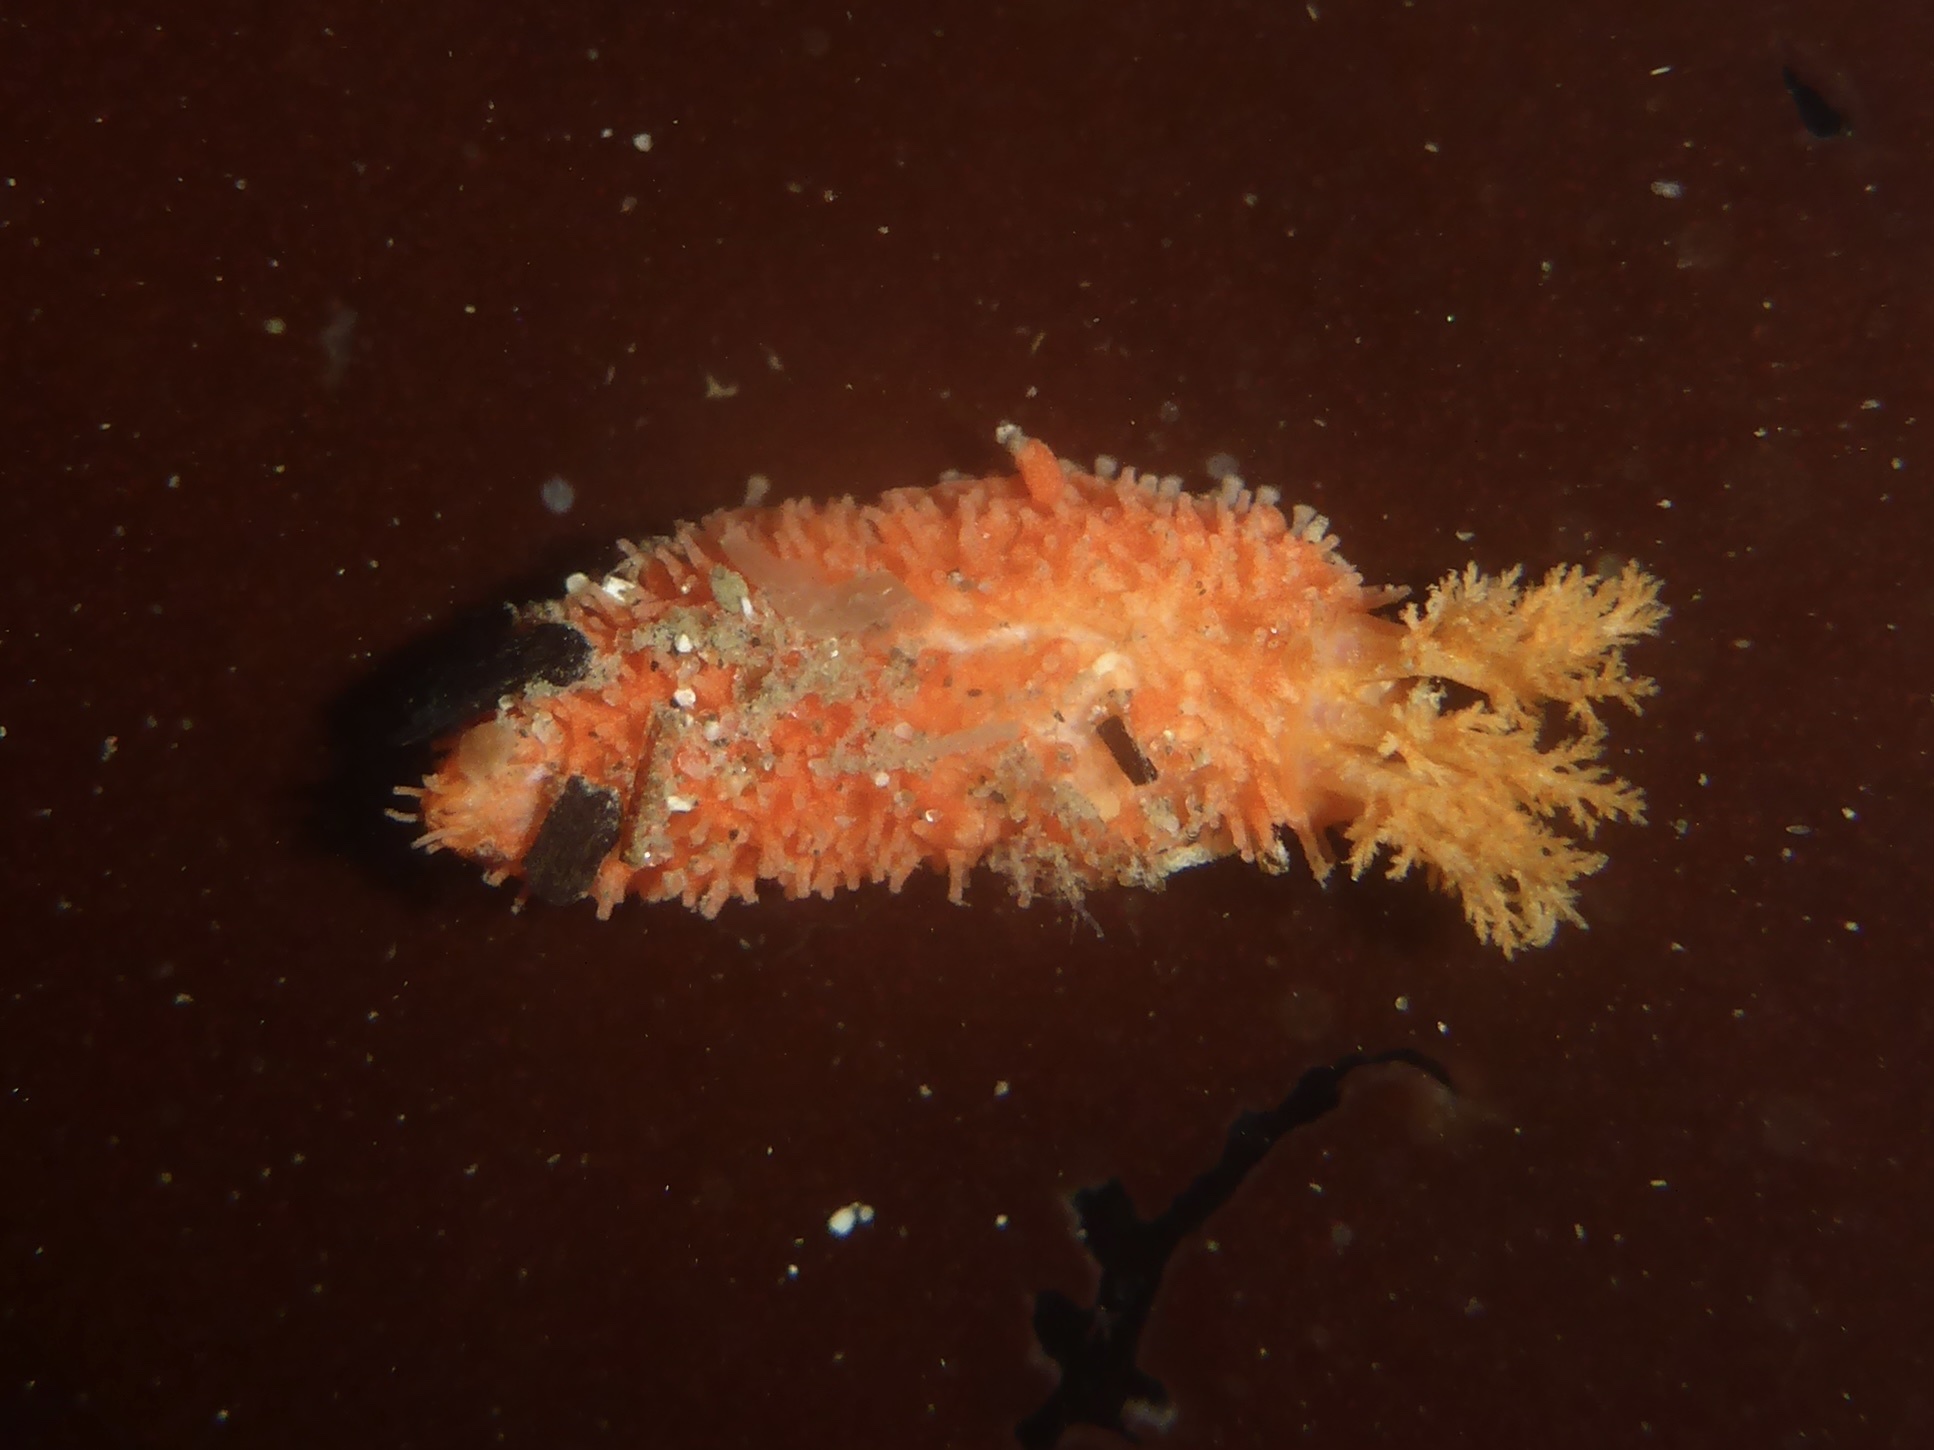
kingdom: Animalia
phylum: Echinodermata
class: Holothuroidea
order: Dendrochirotida
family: Psolidae
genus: Lissothuria
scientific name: Lissothuria nutriens
